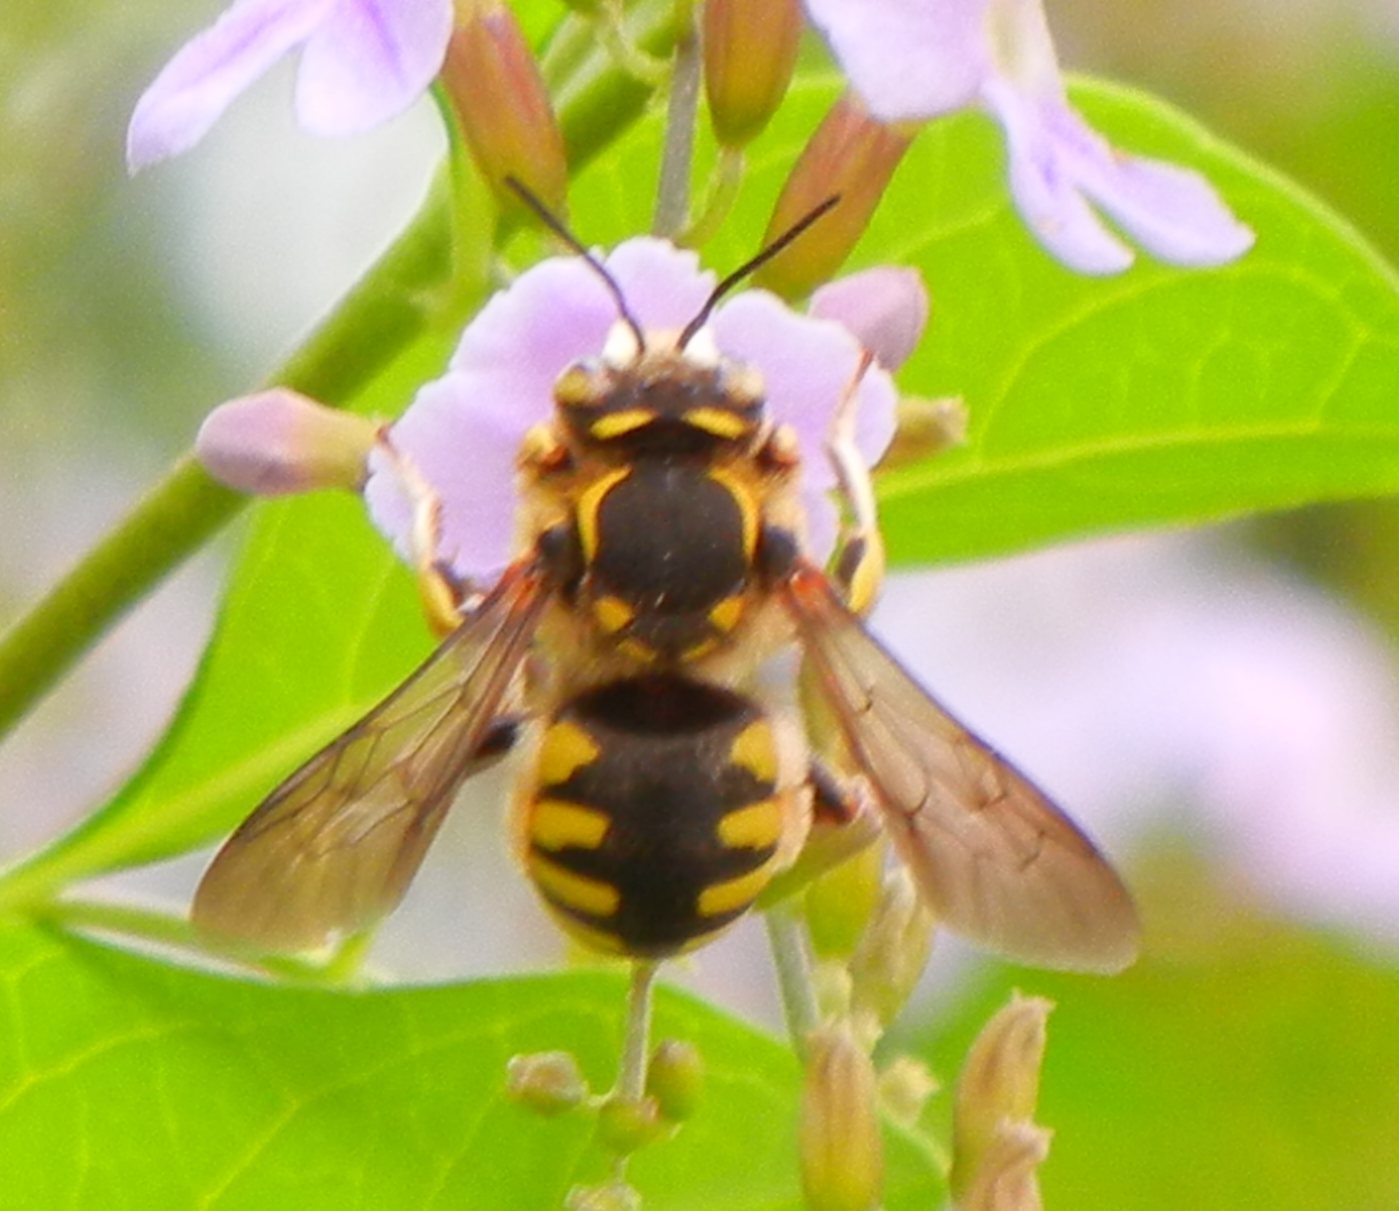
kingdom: Animalia
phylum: Arthropoda
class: Insecta
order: Hymenoptera
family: Megachilidae
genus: Anthidium
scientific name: Anthidium florentinum
